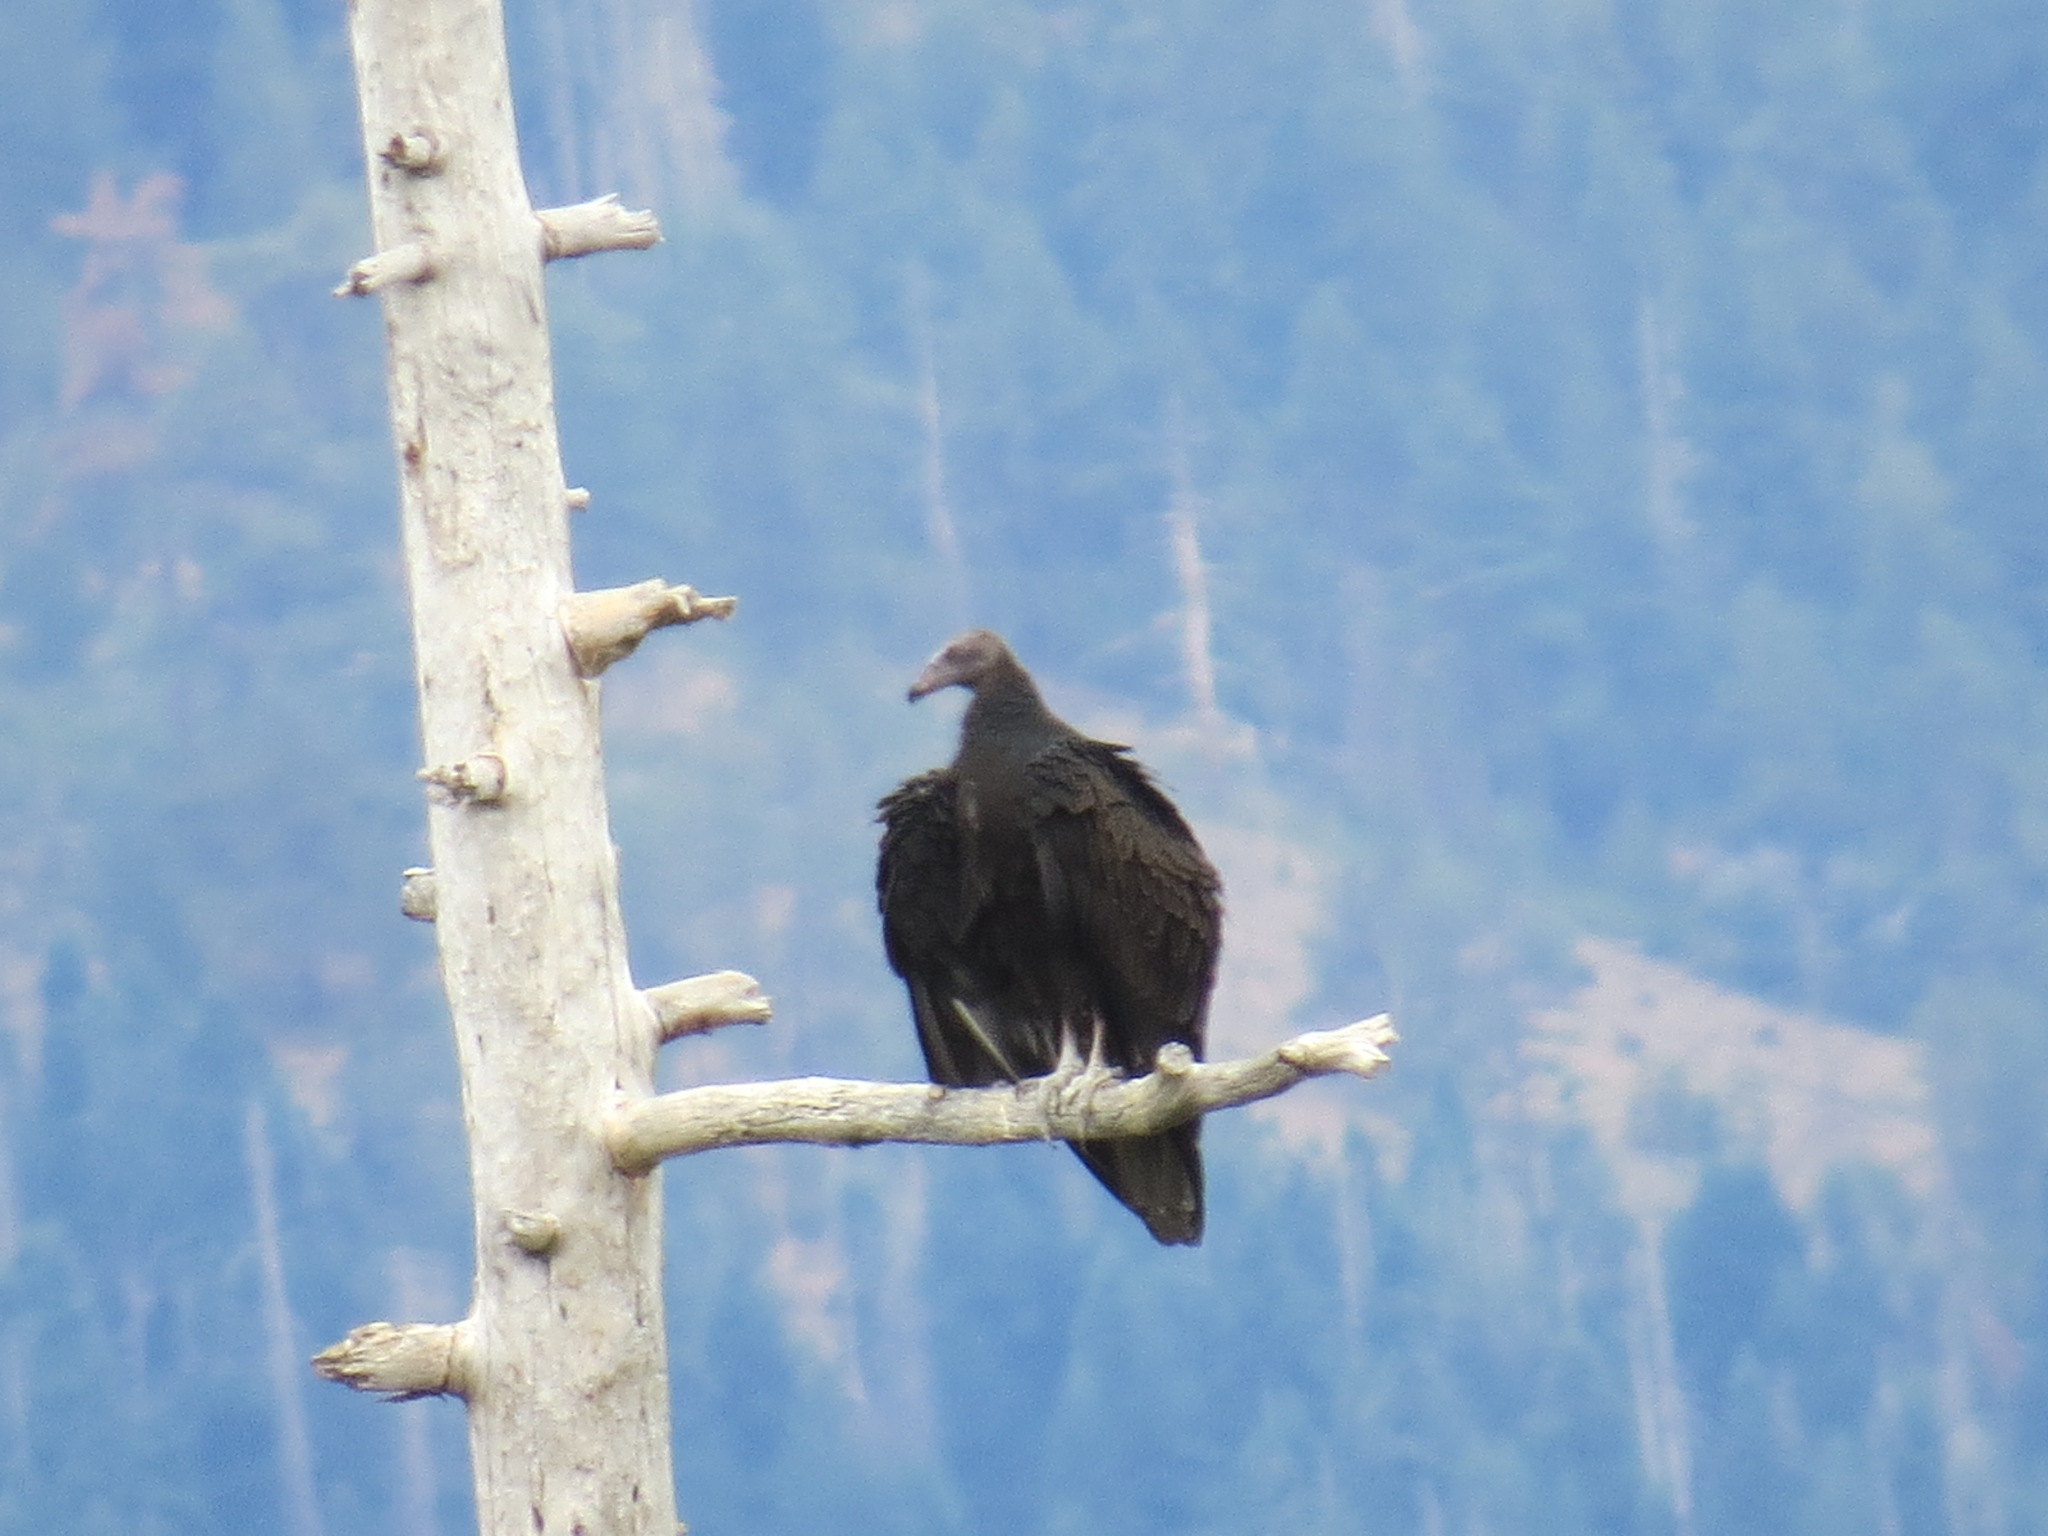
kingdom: Animalia
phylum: Chordata
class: Aves
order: Accipitriformes
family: Cathartidae
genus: Cathartes
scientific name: Cathartes aura
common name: Turkey vulture
